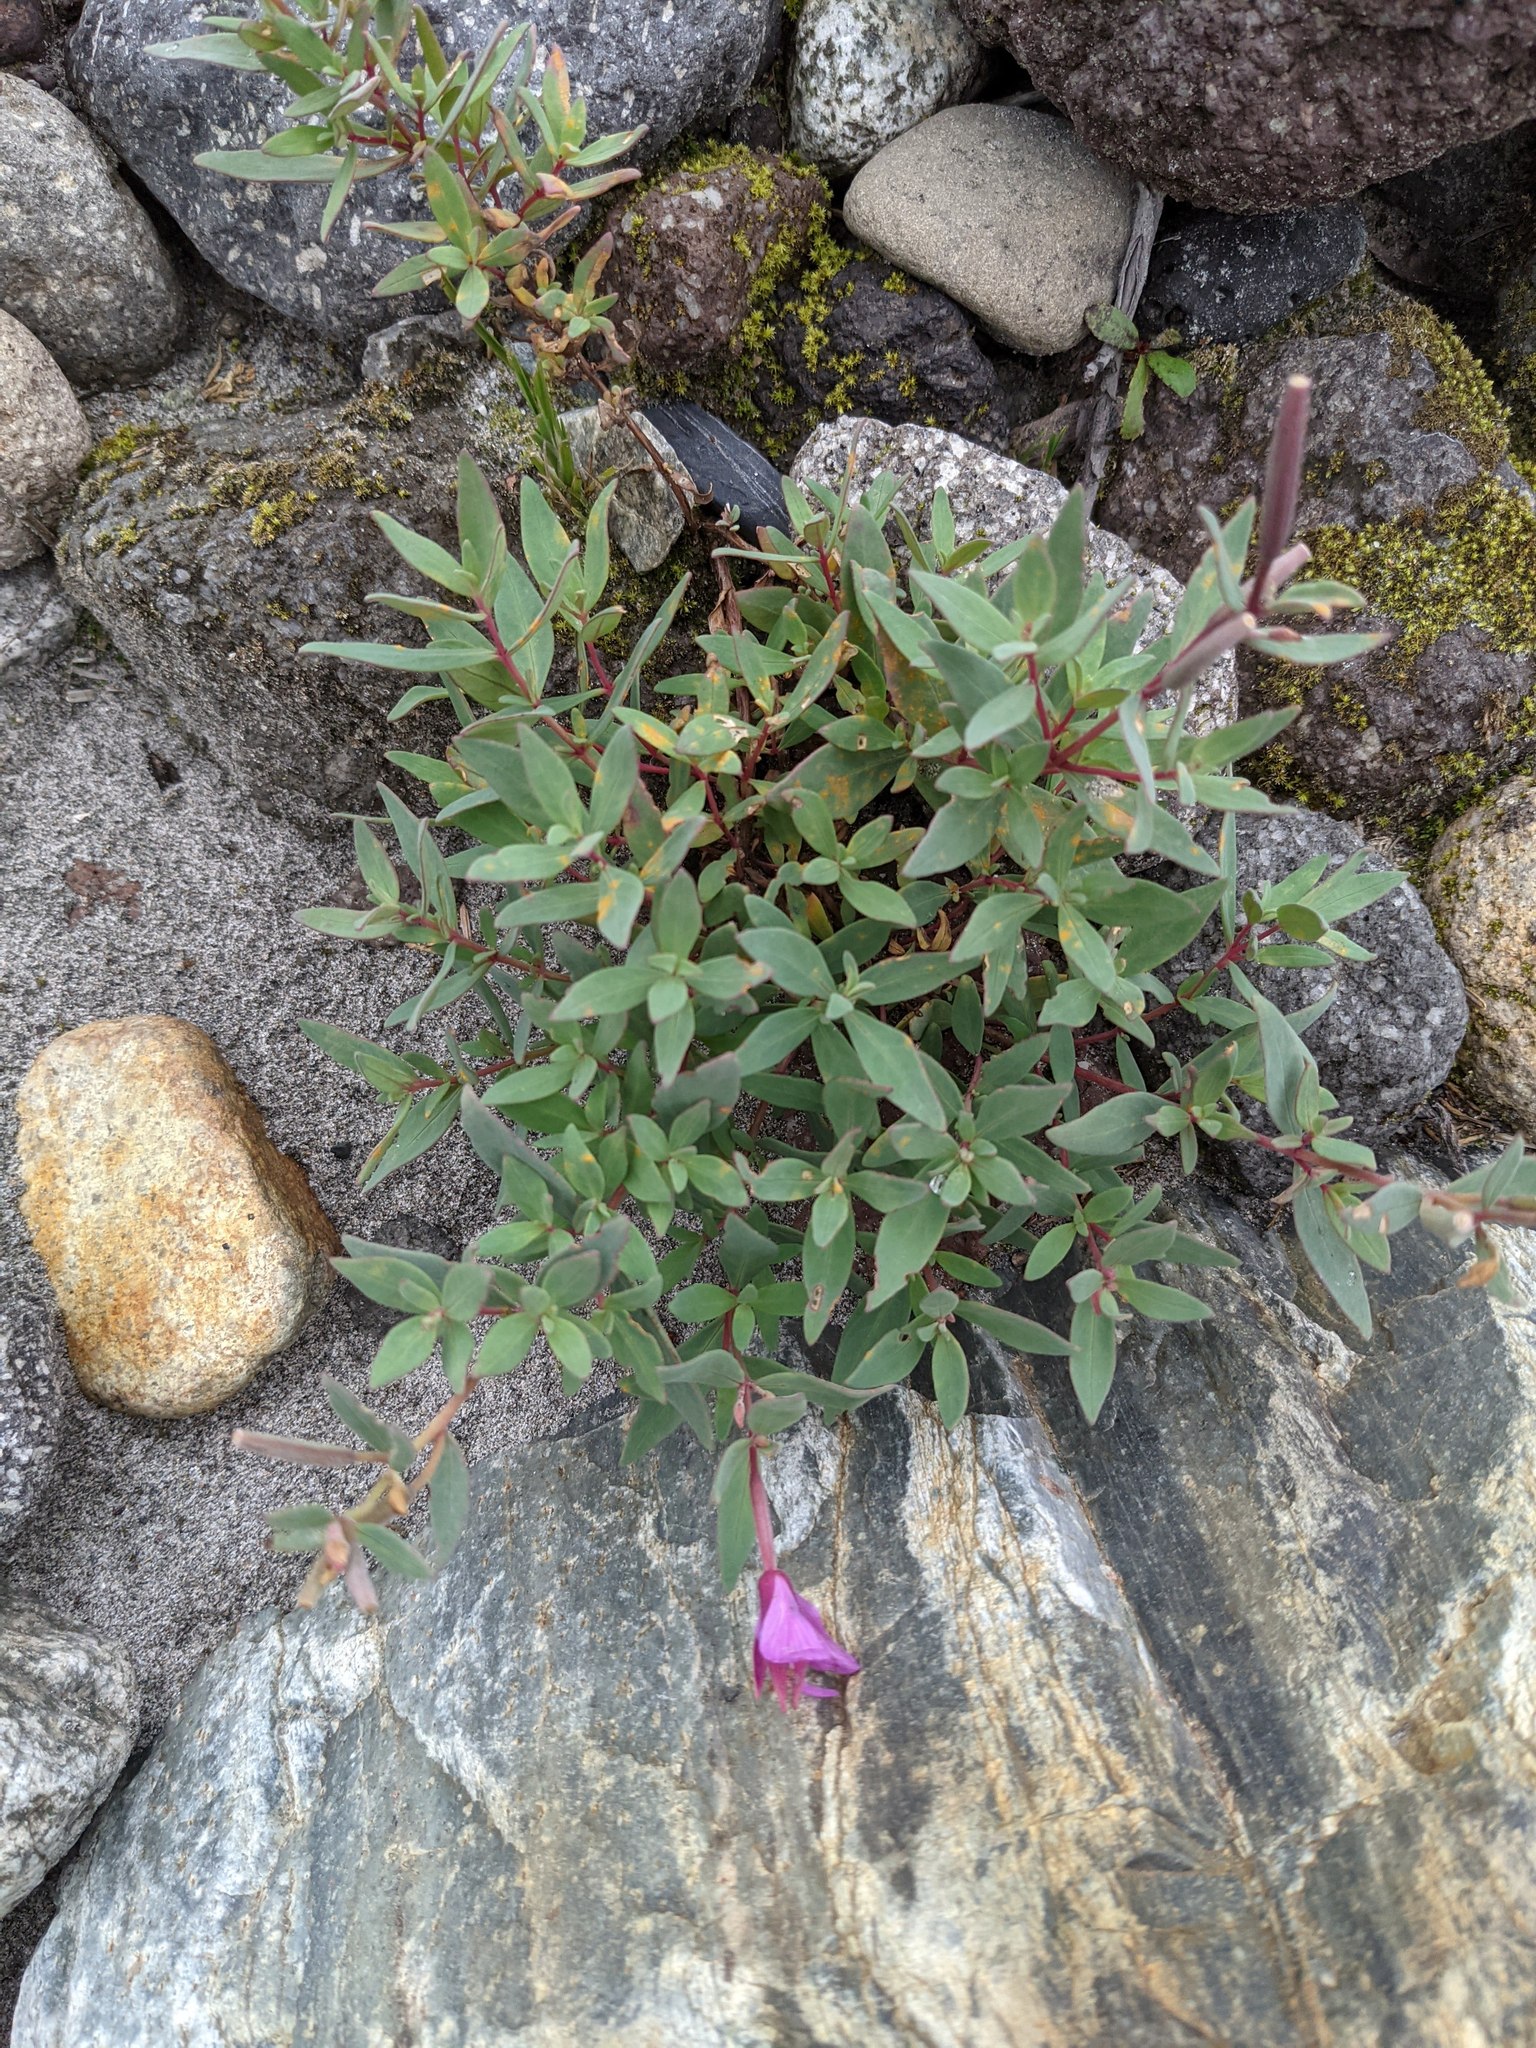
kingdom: Plantae
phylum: Tracheophyta
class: Magnoliopsida
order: Myrtales
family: Onagraceae
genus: Chamaenerion
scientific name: Chamaenerion latifolium
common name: Dwarf fireweed
